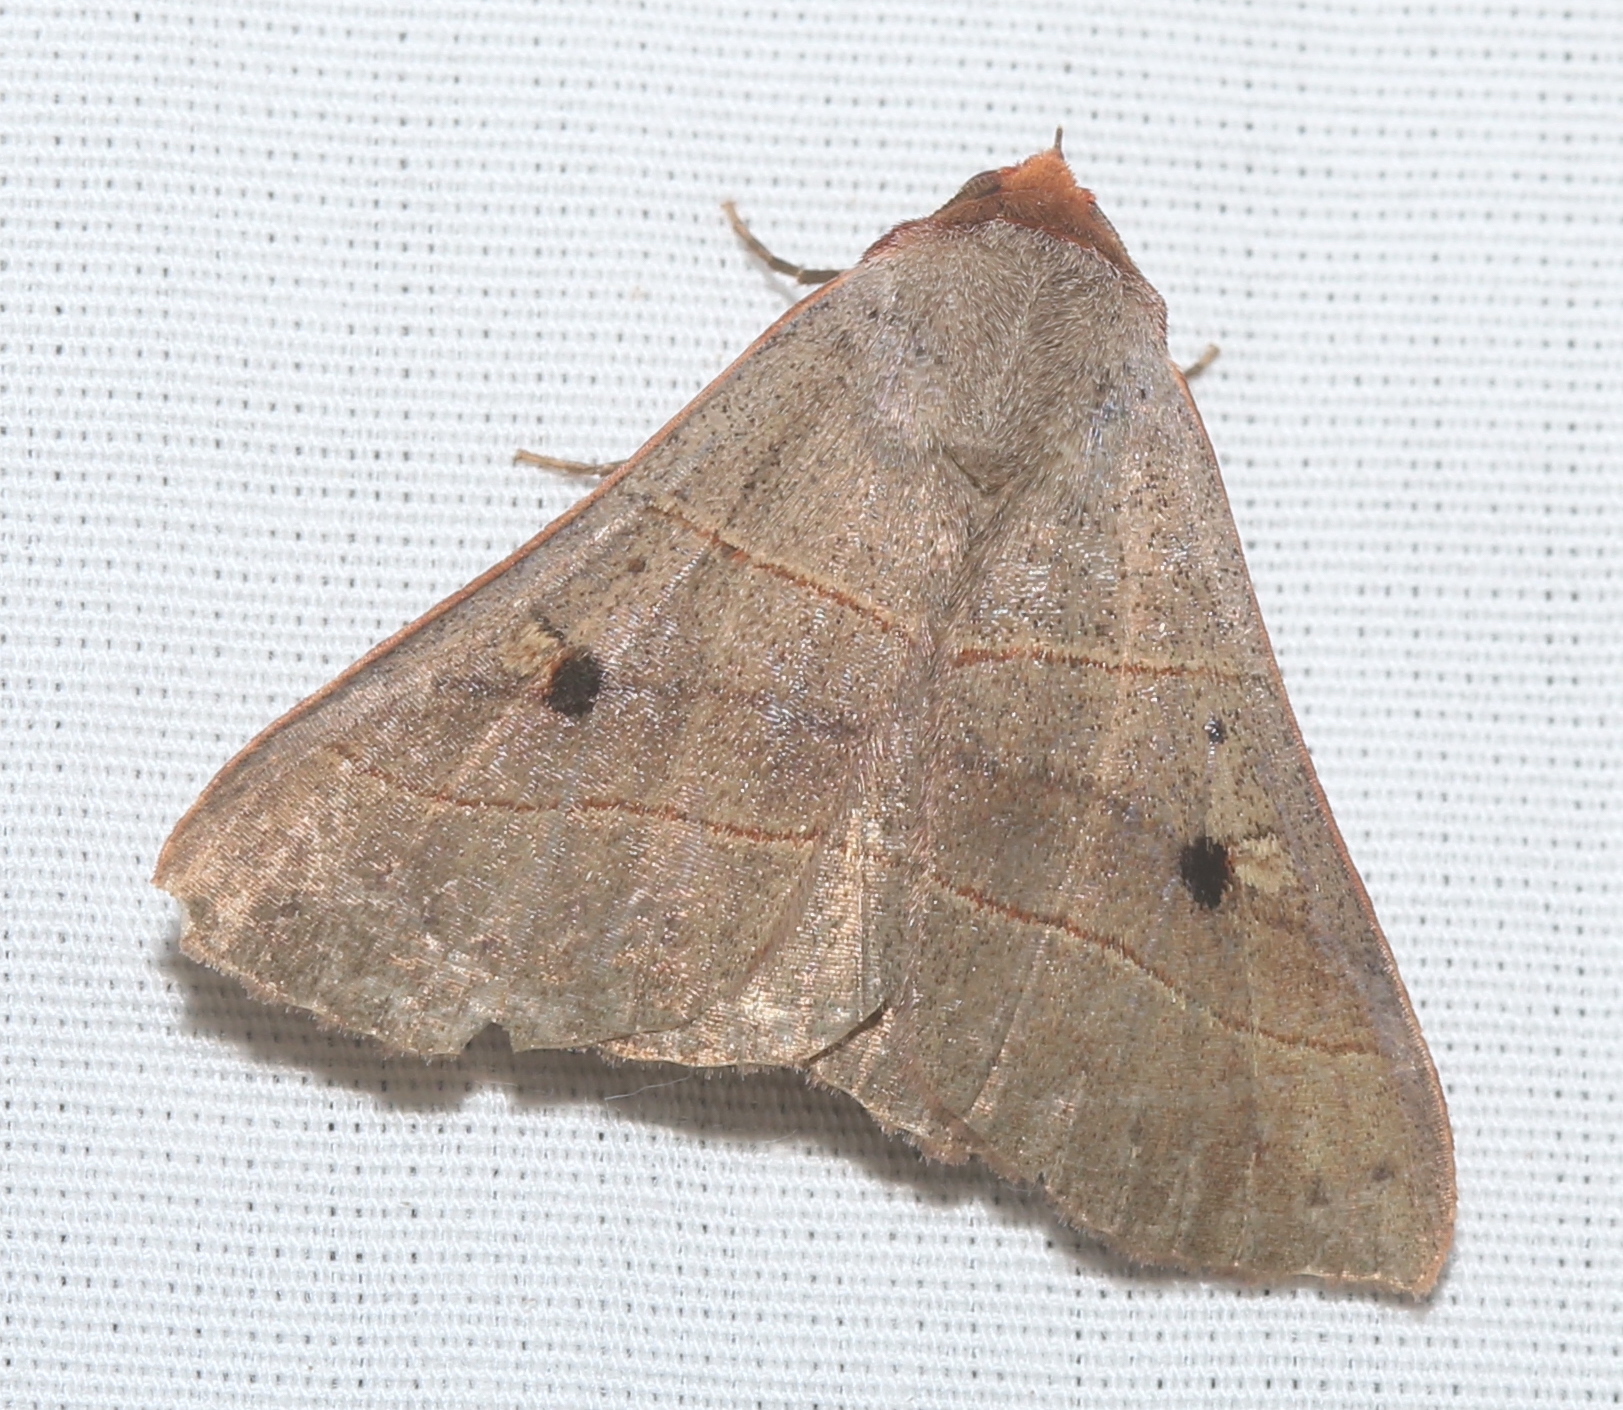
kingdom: Animalia
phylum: Arthropoda
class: Insecta
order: Lepidoptera
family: Erebidae
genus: Panopoda
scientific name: Panopoda rufimargo
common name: Red-lined panopoda moth
